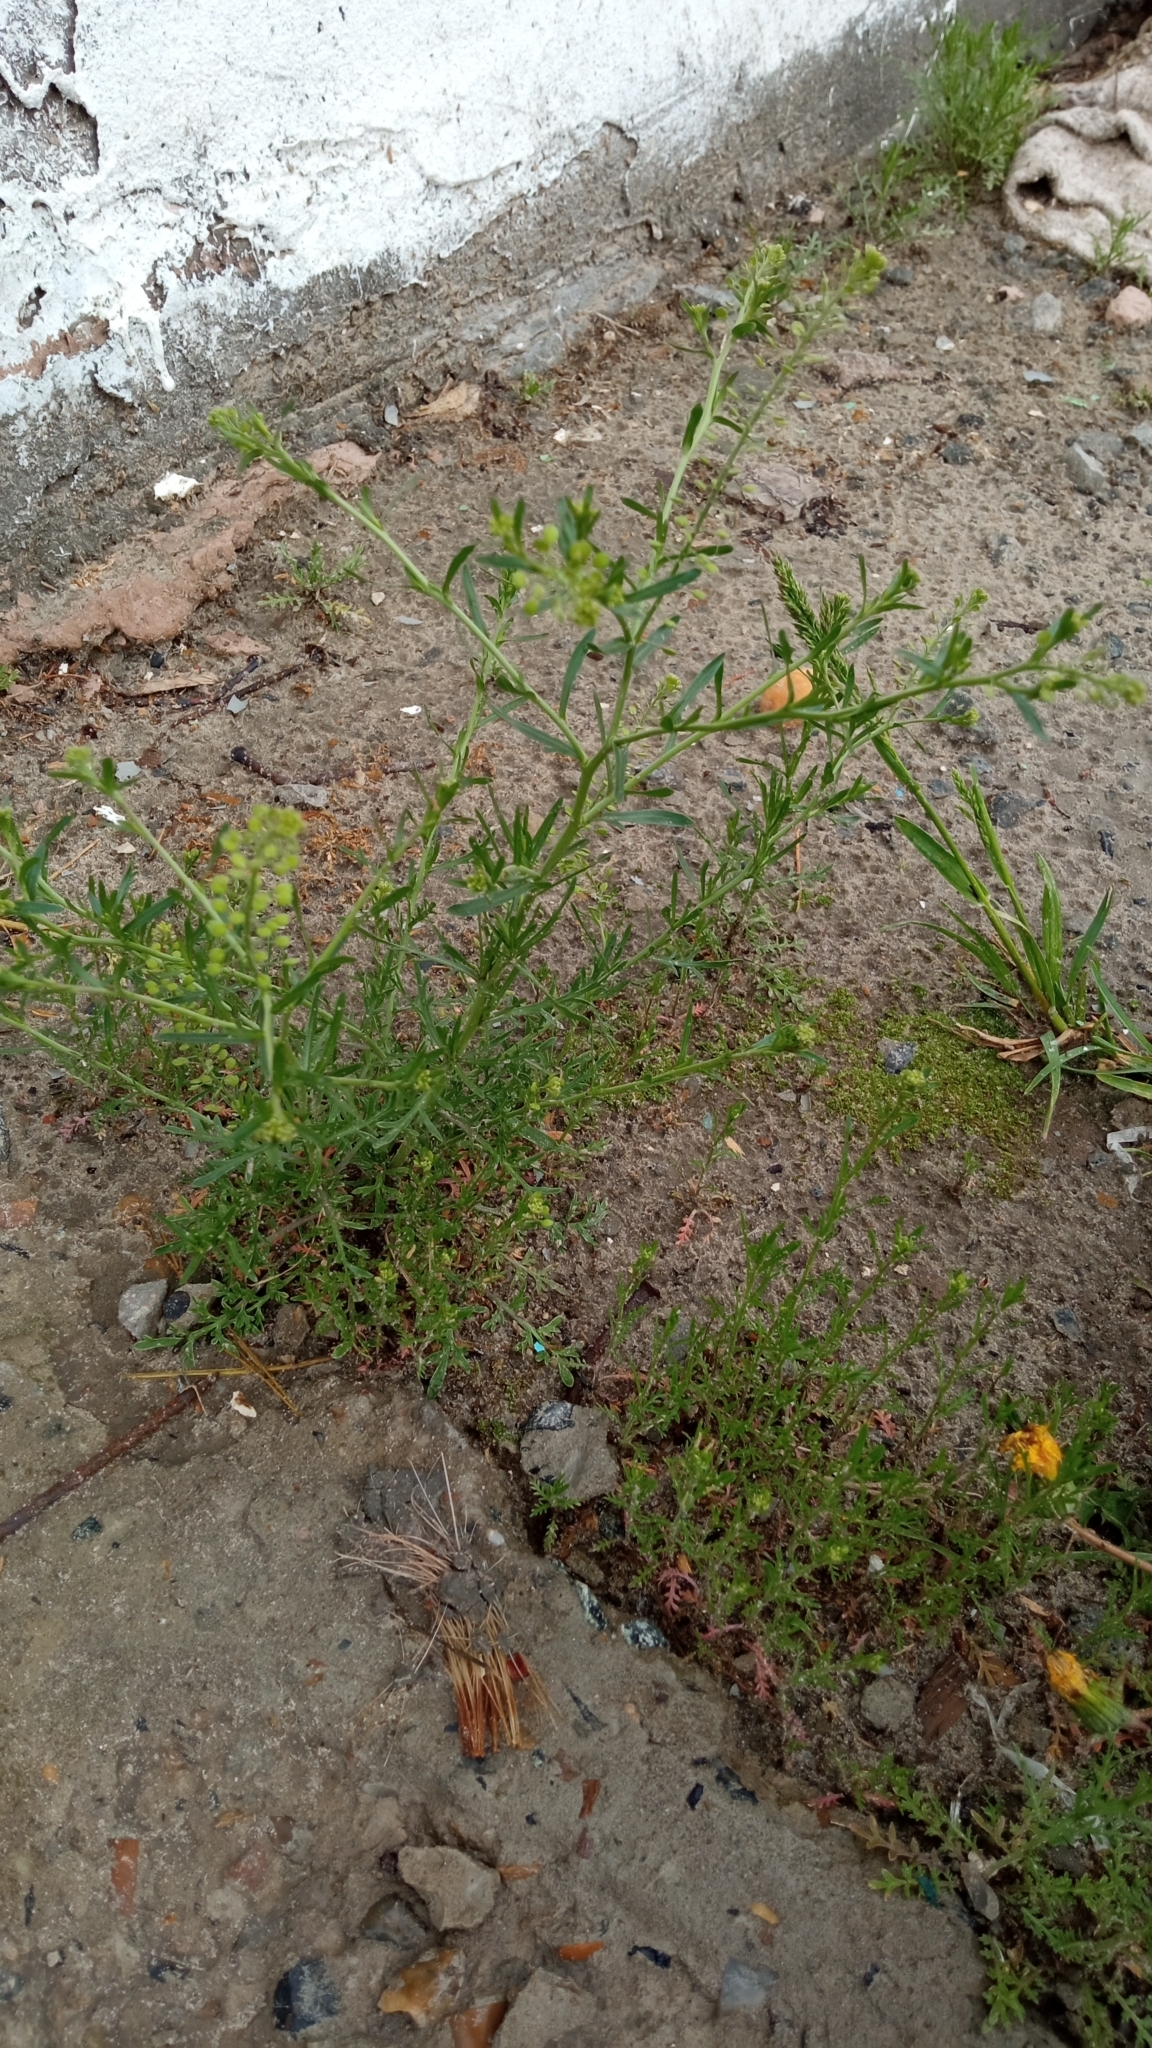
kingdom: Plantae
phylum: Tracheophyta
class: Magnoliopsida
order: Brassicales
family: Brassicaceae
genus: Lepidium
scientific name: Lepidium ruderale
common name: Narrow-leaved pepperwort
